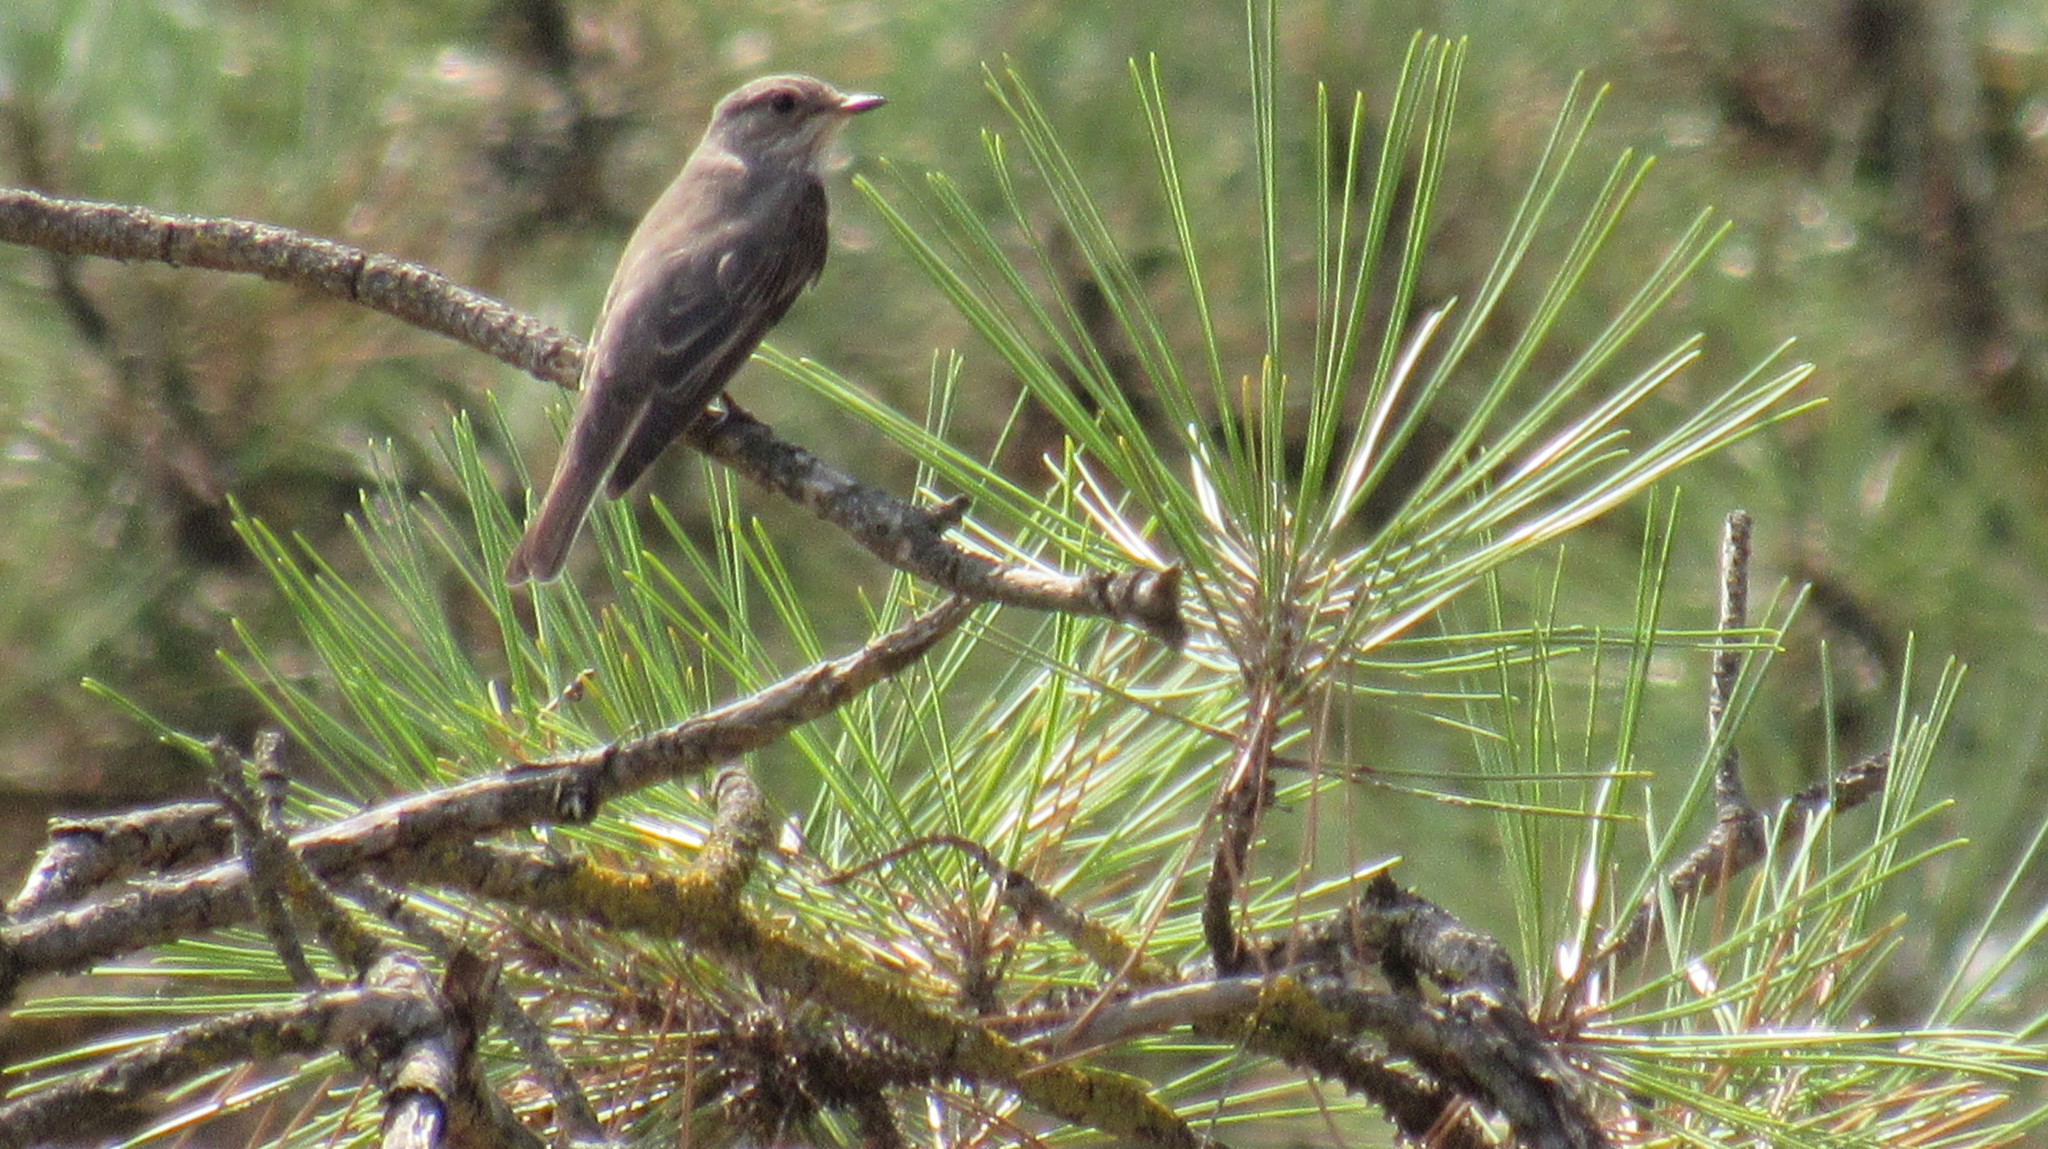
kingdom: Animalia
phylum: Chordata
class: Aves
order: Passeriformes
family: Muscicapidae
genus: Muscicapa
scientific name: Muscicapa striata
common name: Spotted flycatcher
